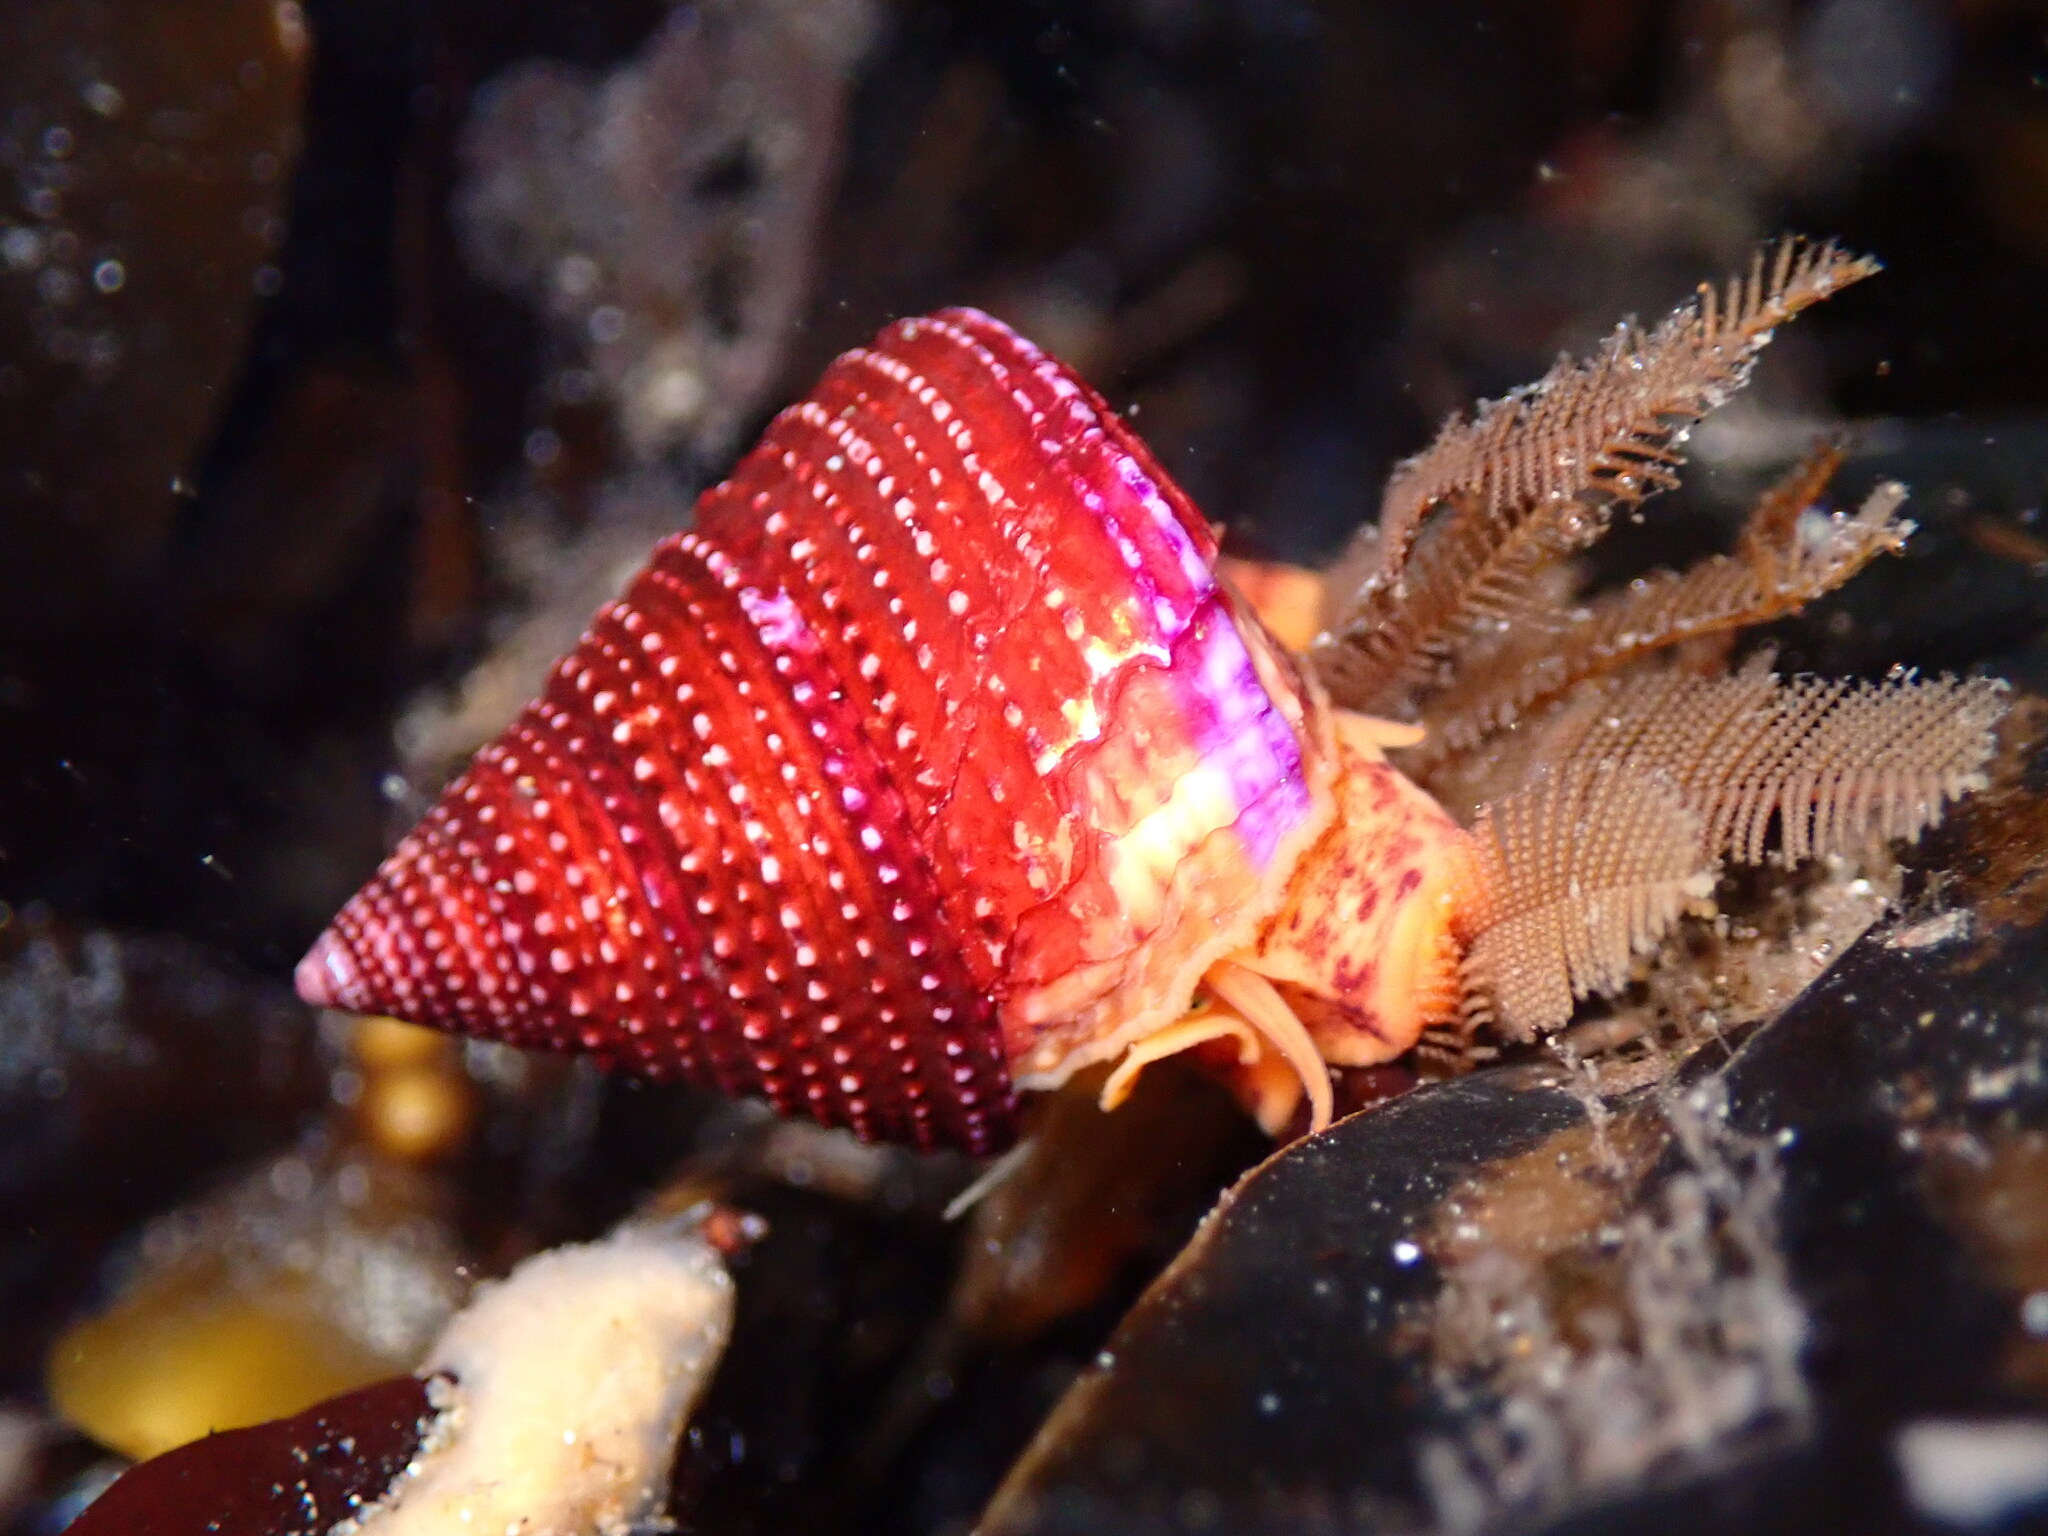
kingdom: Animalia
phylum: Mollusca
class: Gastropoda
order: Trochida
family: Calliostomatidae
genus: Calliostoma
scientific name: Calliostoma annulatum
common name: Blue-ring topsnail
